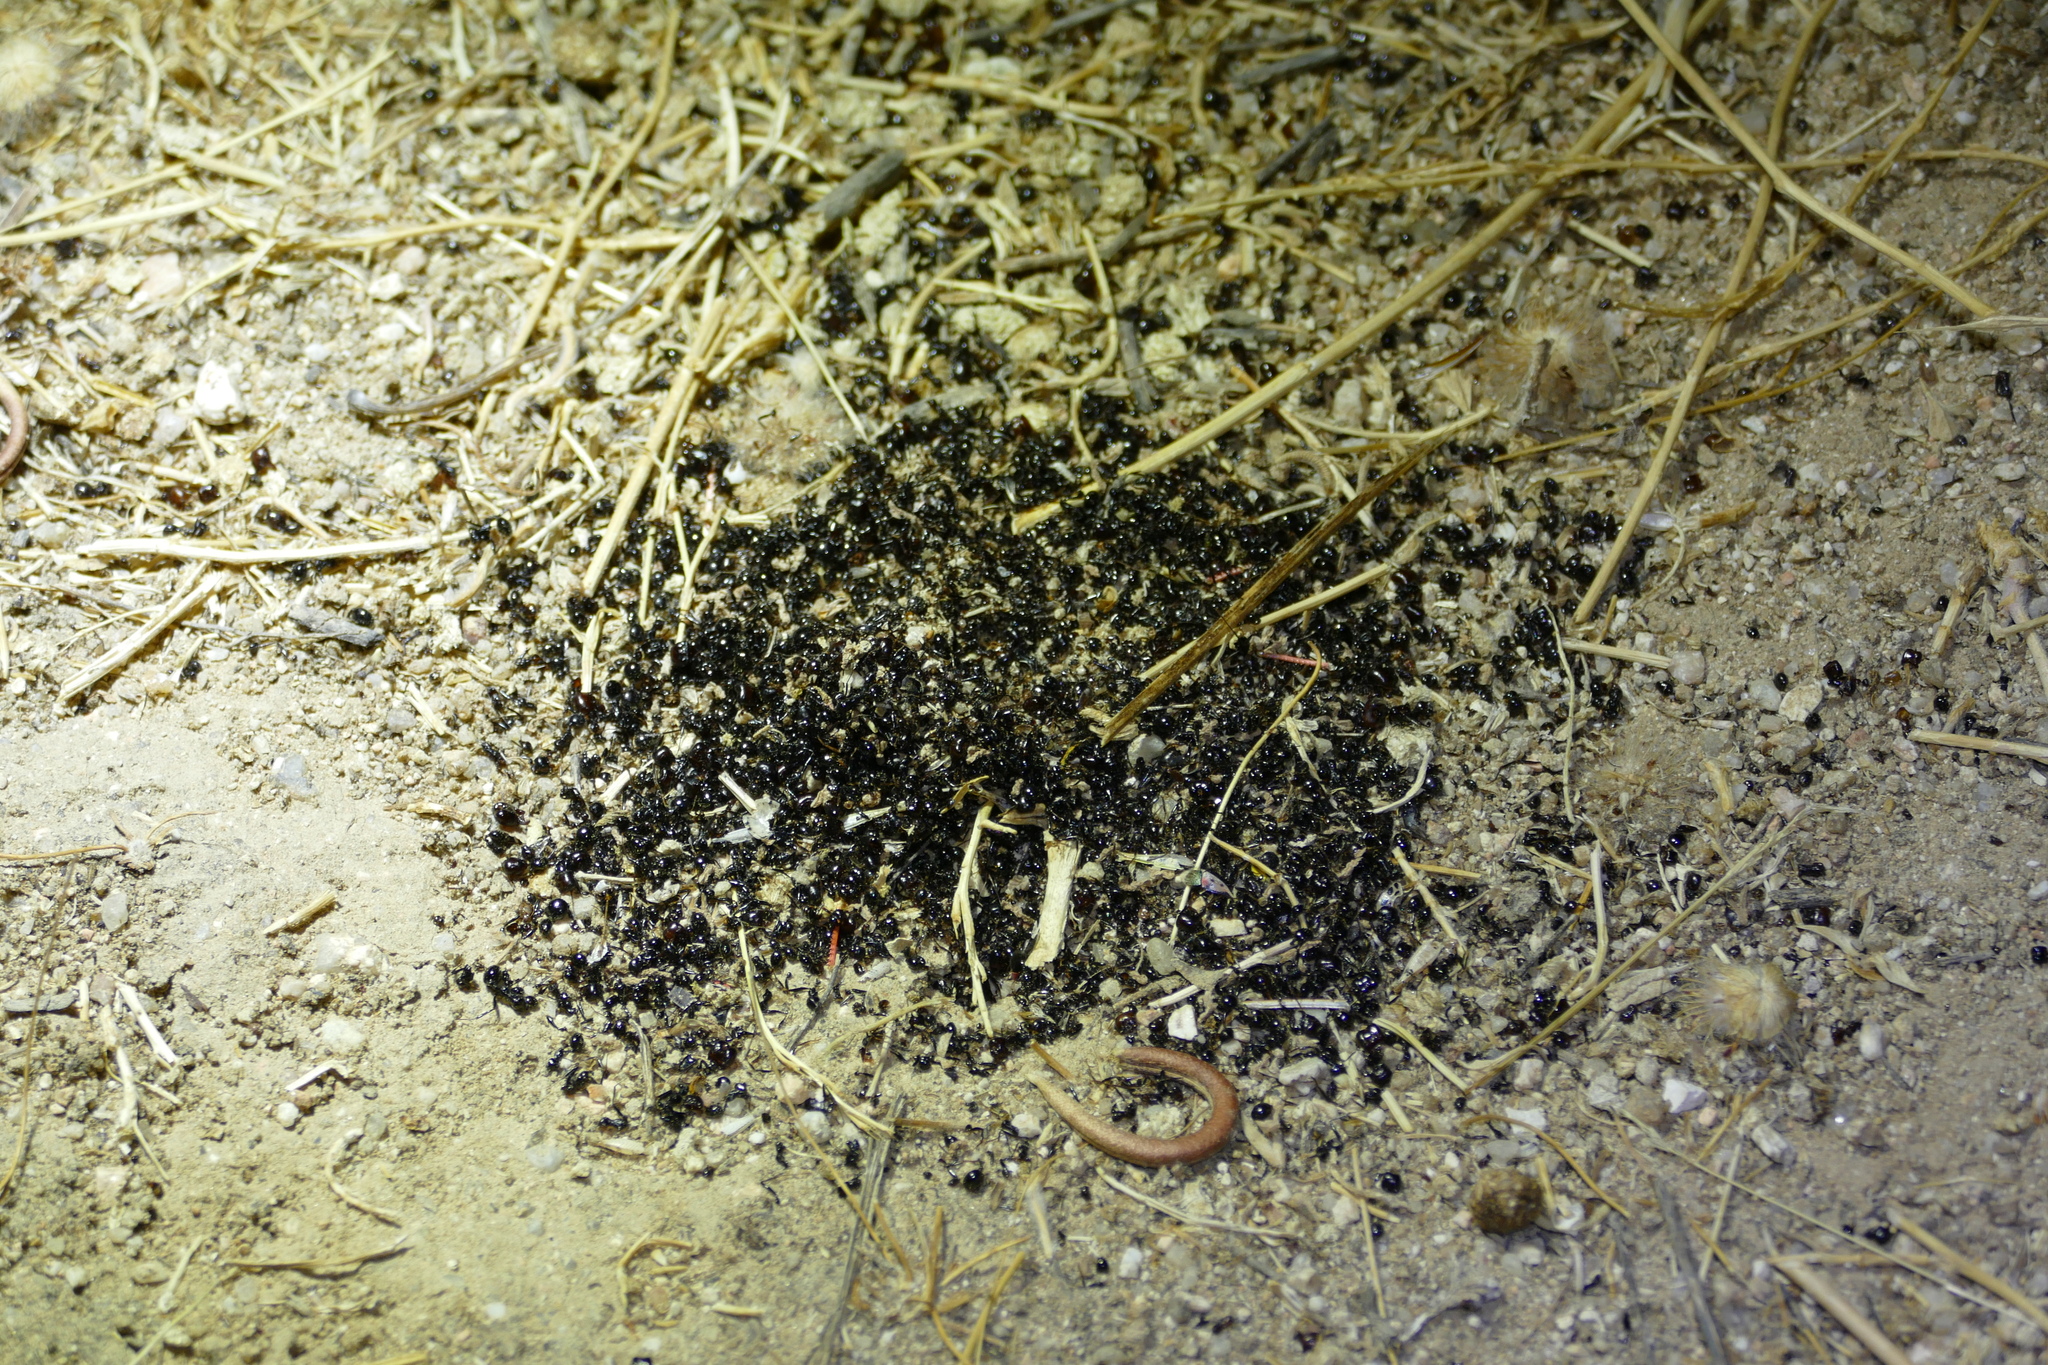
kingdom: Animalia
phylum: Arthropoda
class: Insecta
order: Hymenoptera
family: Formicidae
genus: Messor
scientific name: Messor barbarus
